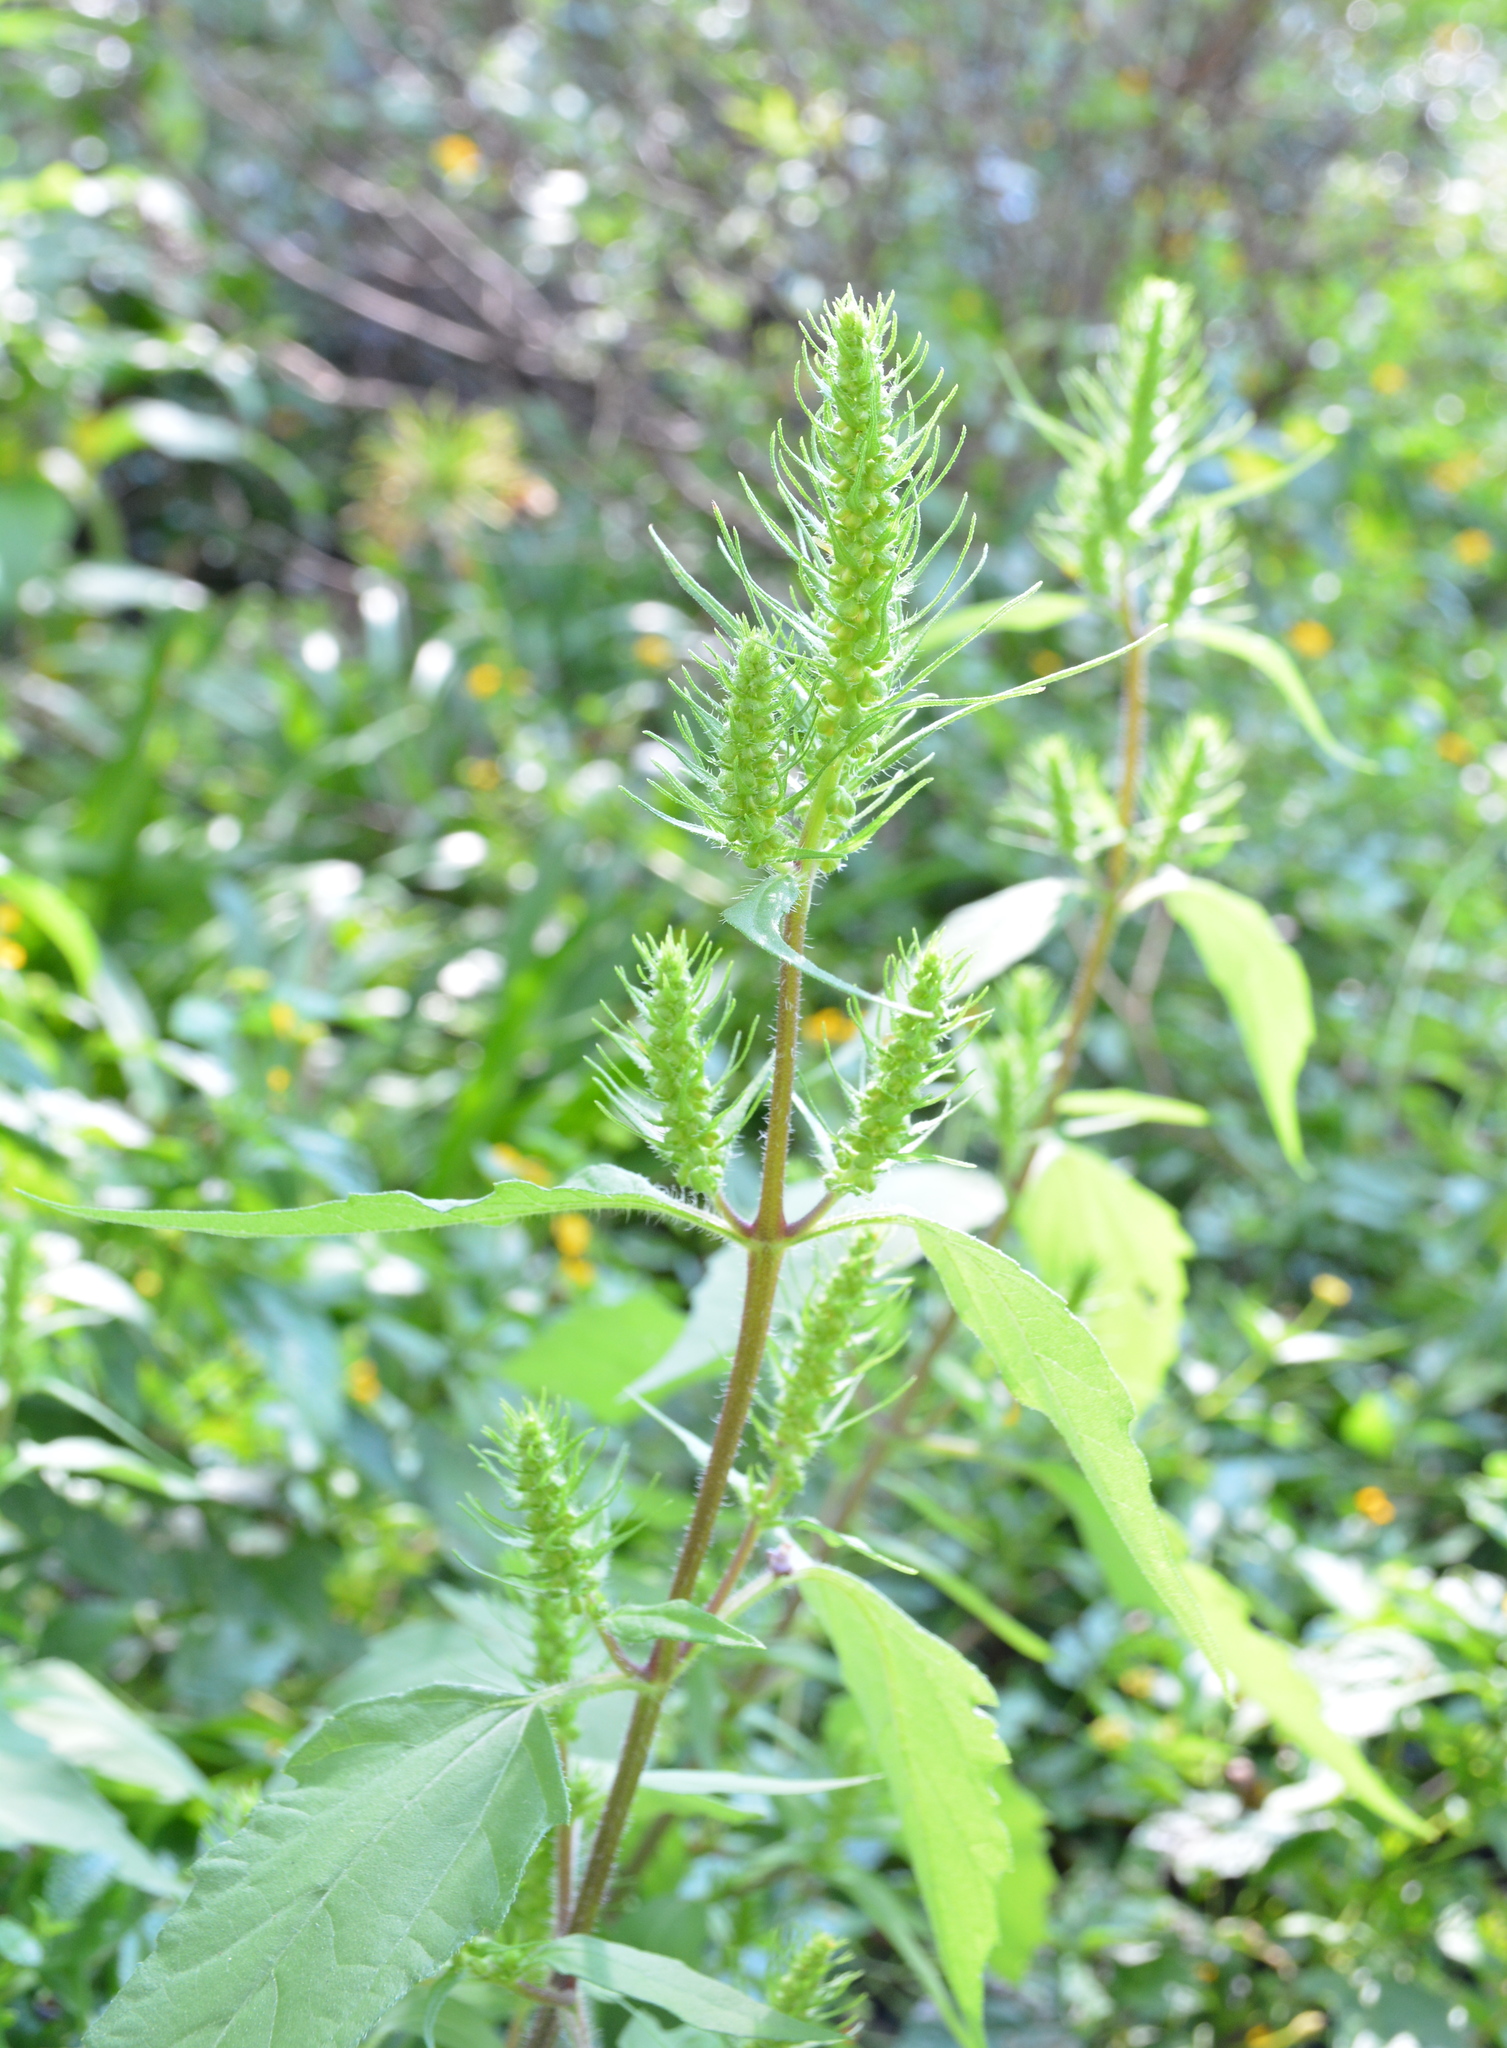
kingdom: Plantae
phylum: Tracheophyta
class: Magnoliopsida
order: Asterales
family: Asteraceae
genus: Iva
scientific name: Iva annua
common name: Marsh-elder
